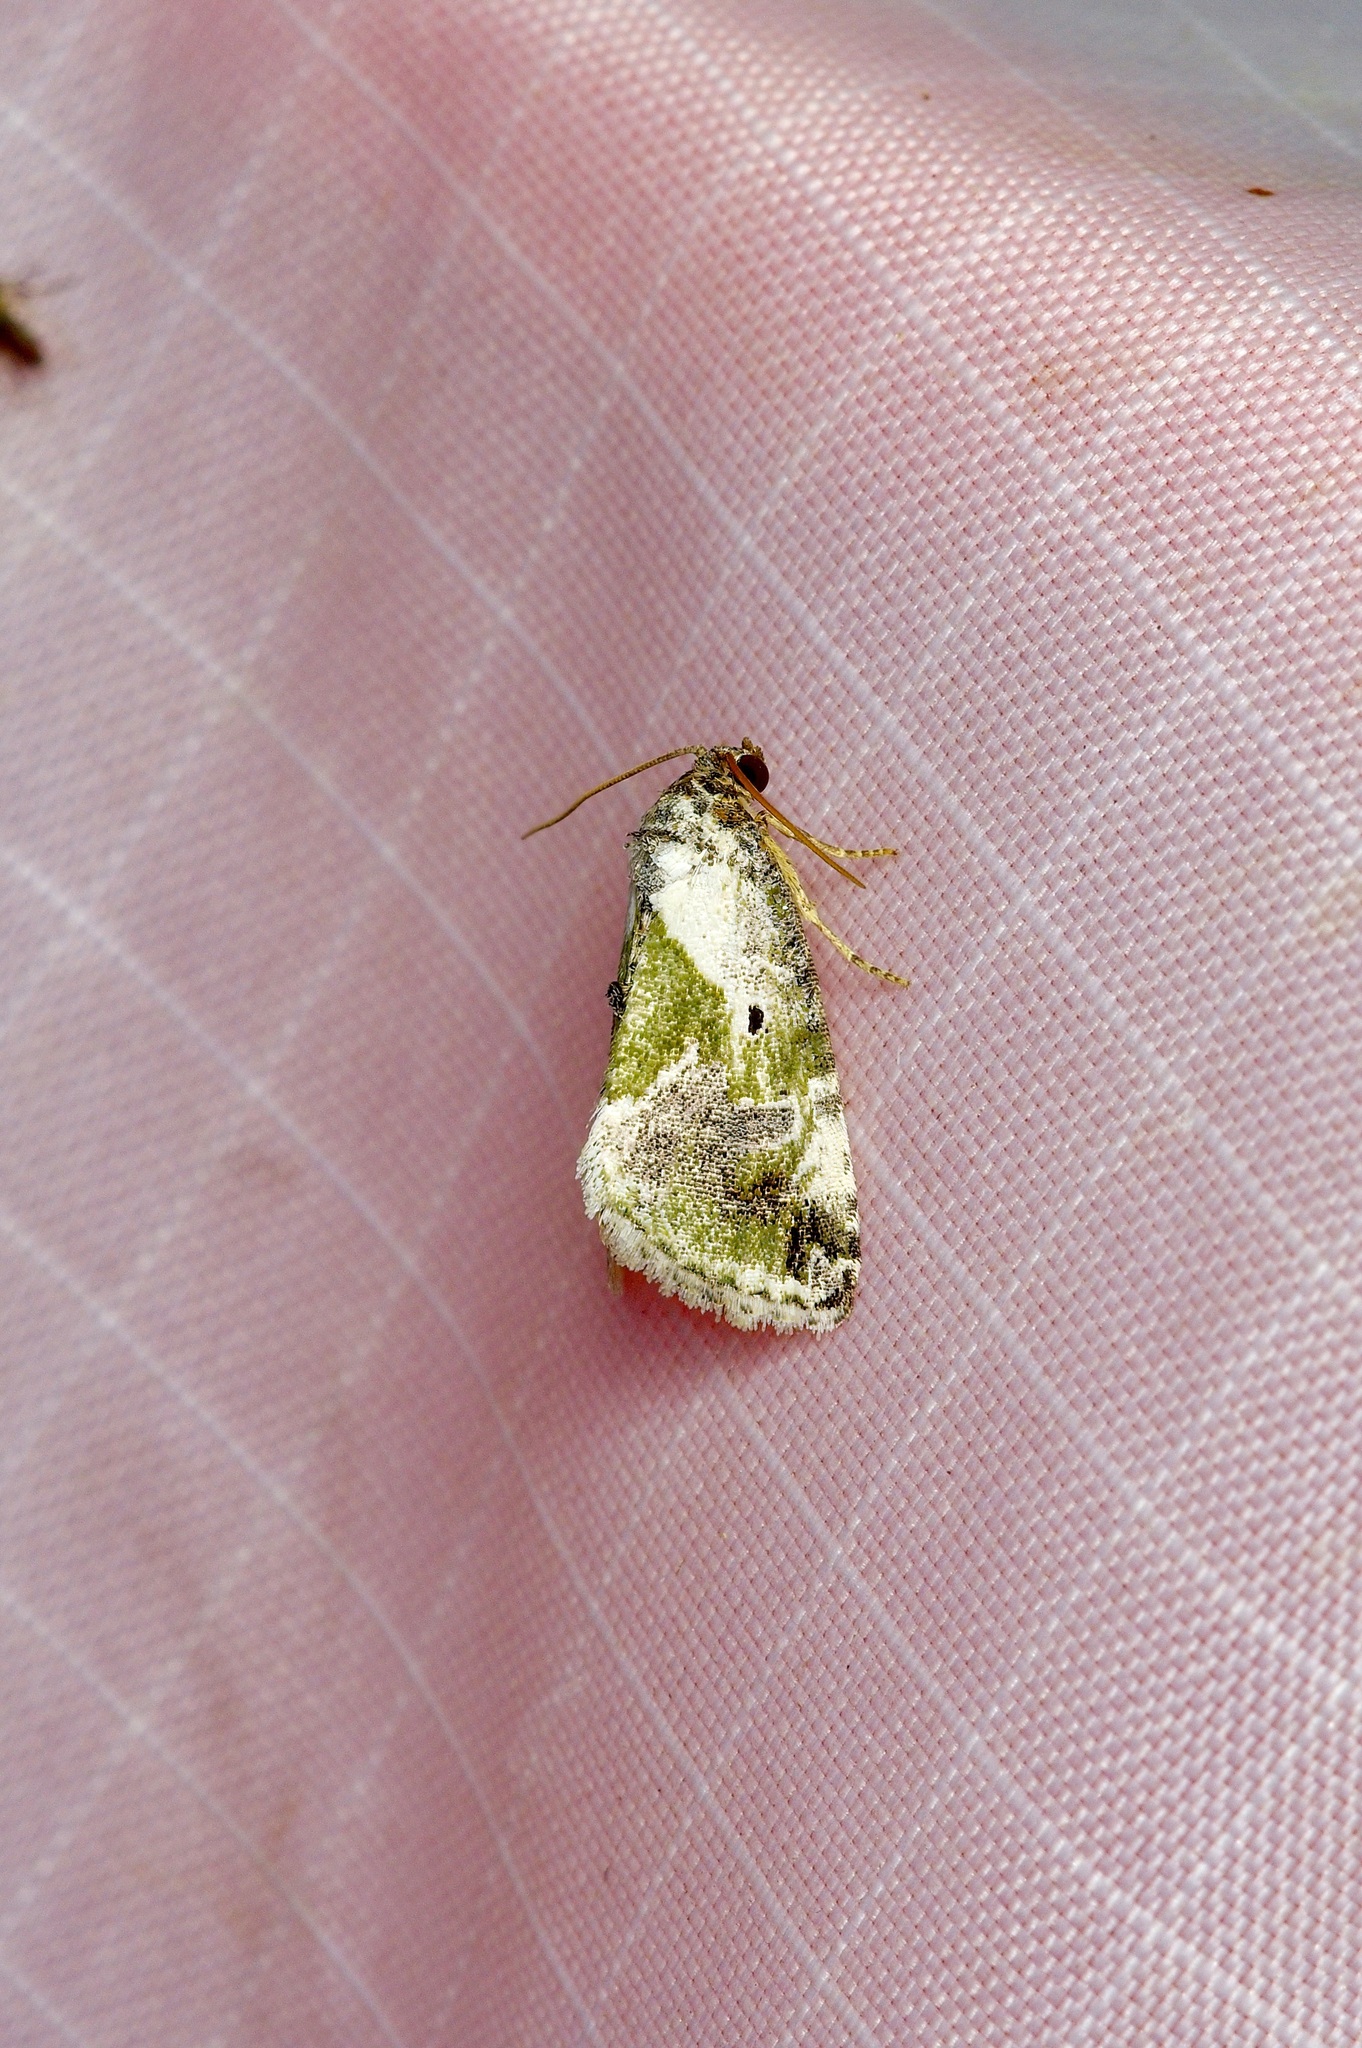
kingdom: Animalia
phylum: Arthropoda
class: Insecta
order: Lepidoptera
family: Noctuidae
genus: Maliattha
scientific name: Maliattha synochitis
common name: Black-dotted glyph
